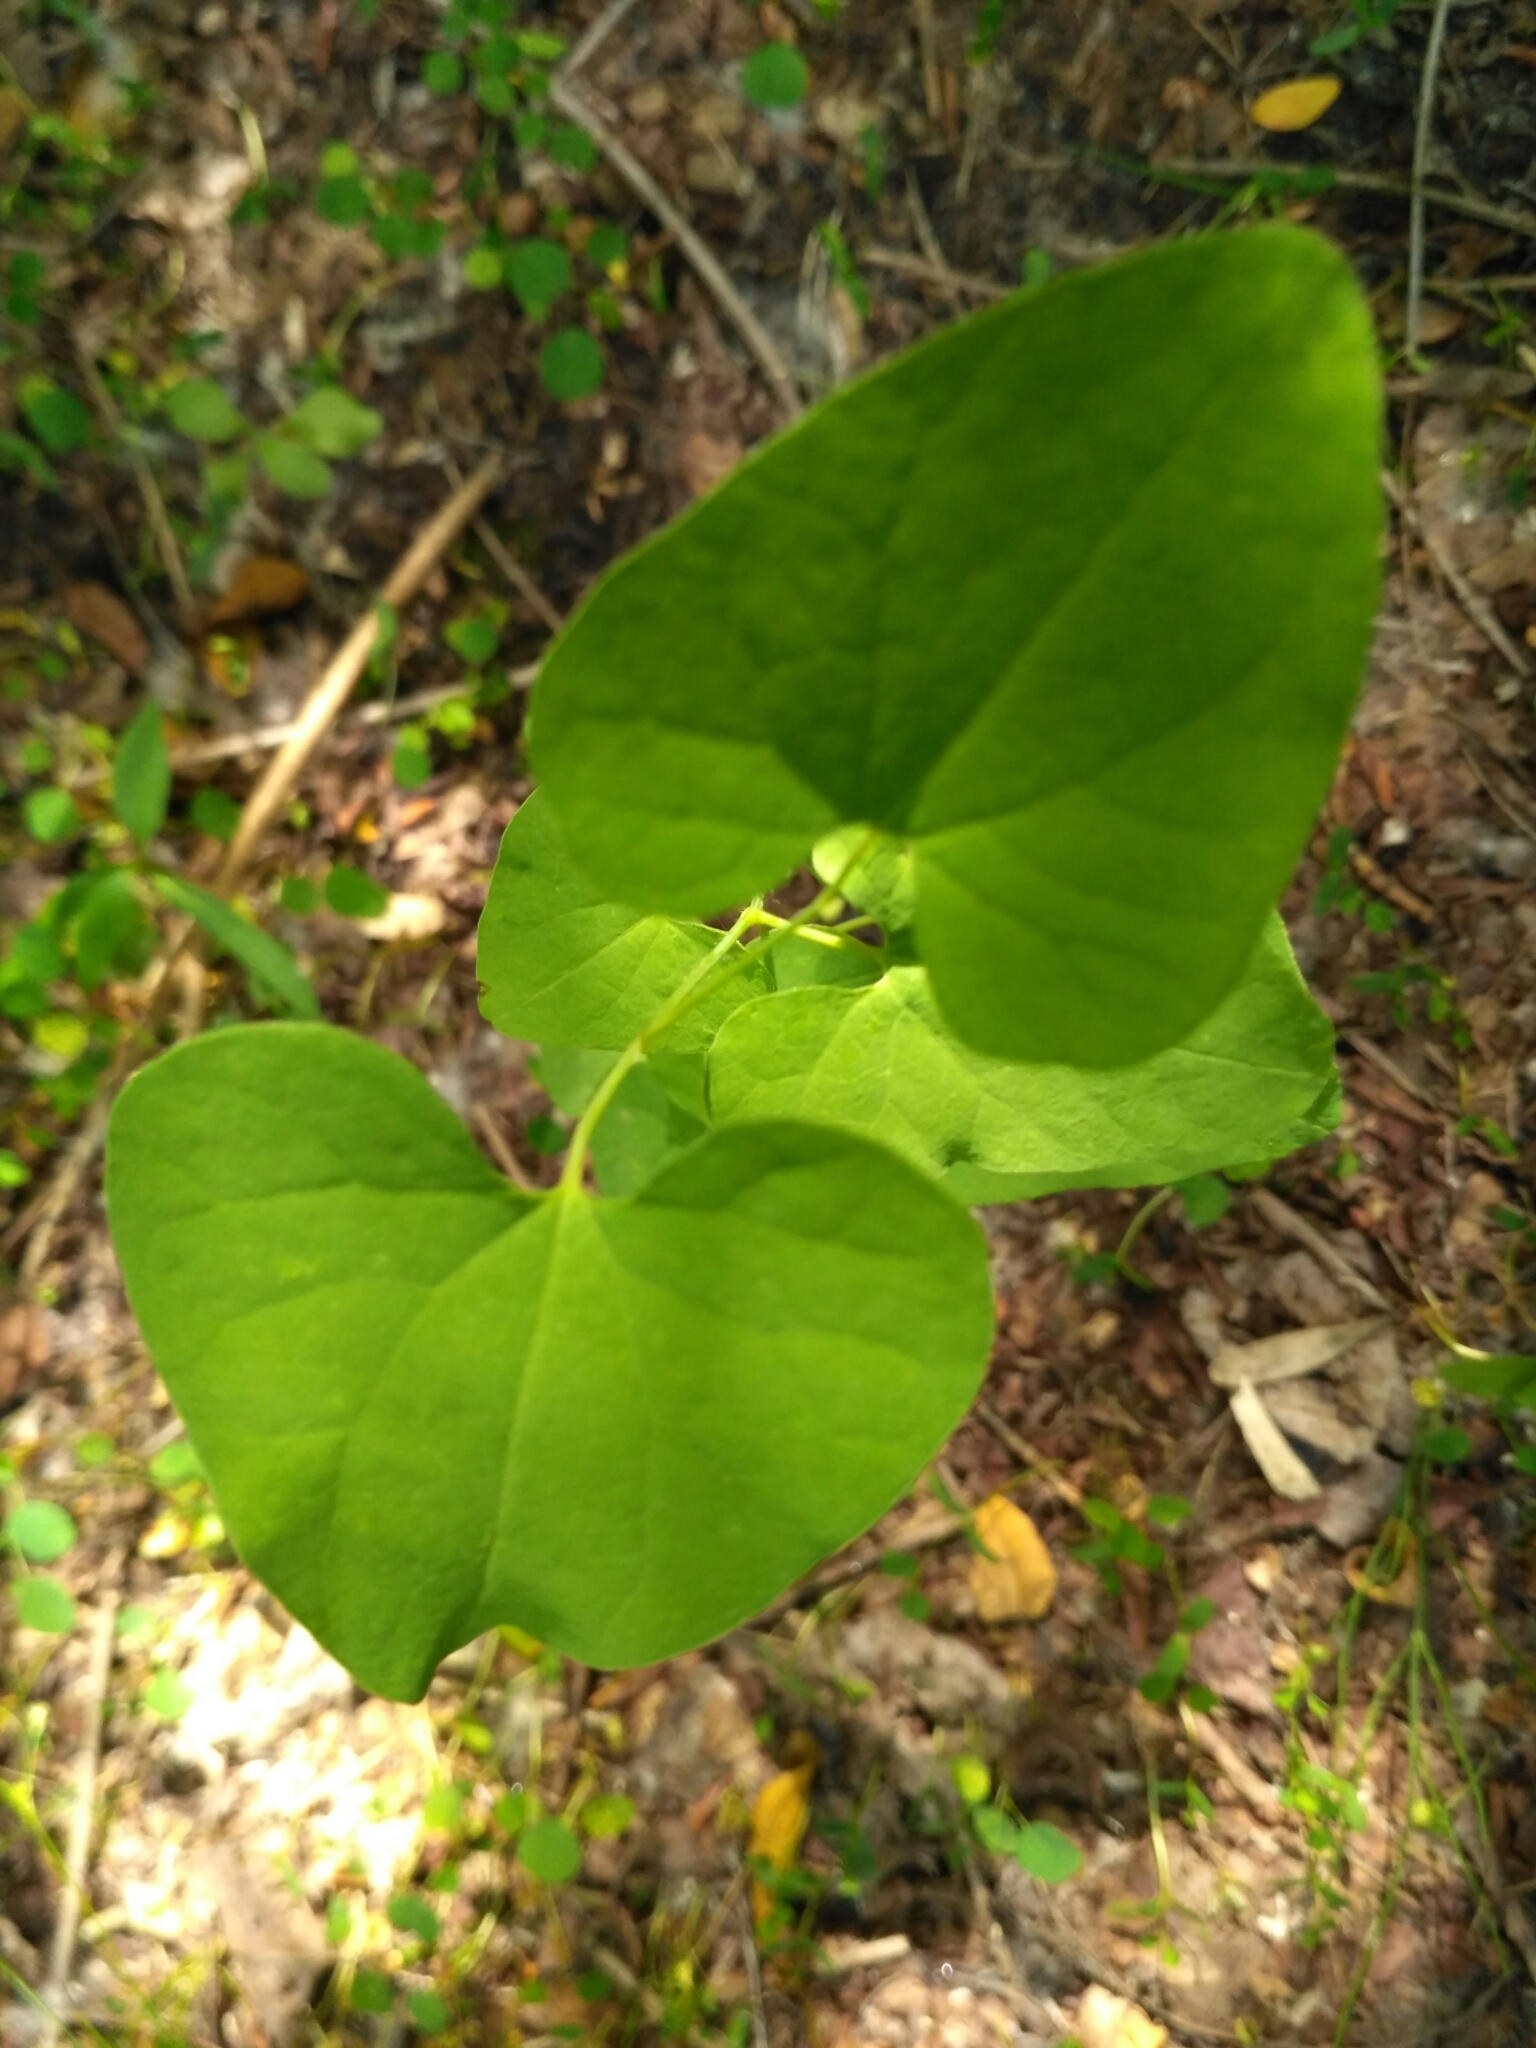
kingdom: Plantae
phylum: Tracheophyta
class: Magnoliopsida
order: Piperales
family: Aristolochiaceae
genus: Aristolochia
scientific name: Aristolochia clematitis
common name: Birthwort
